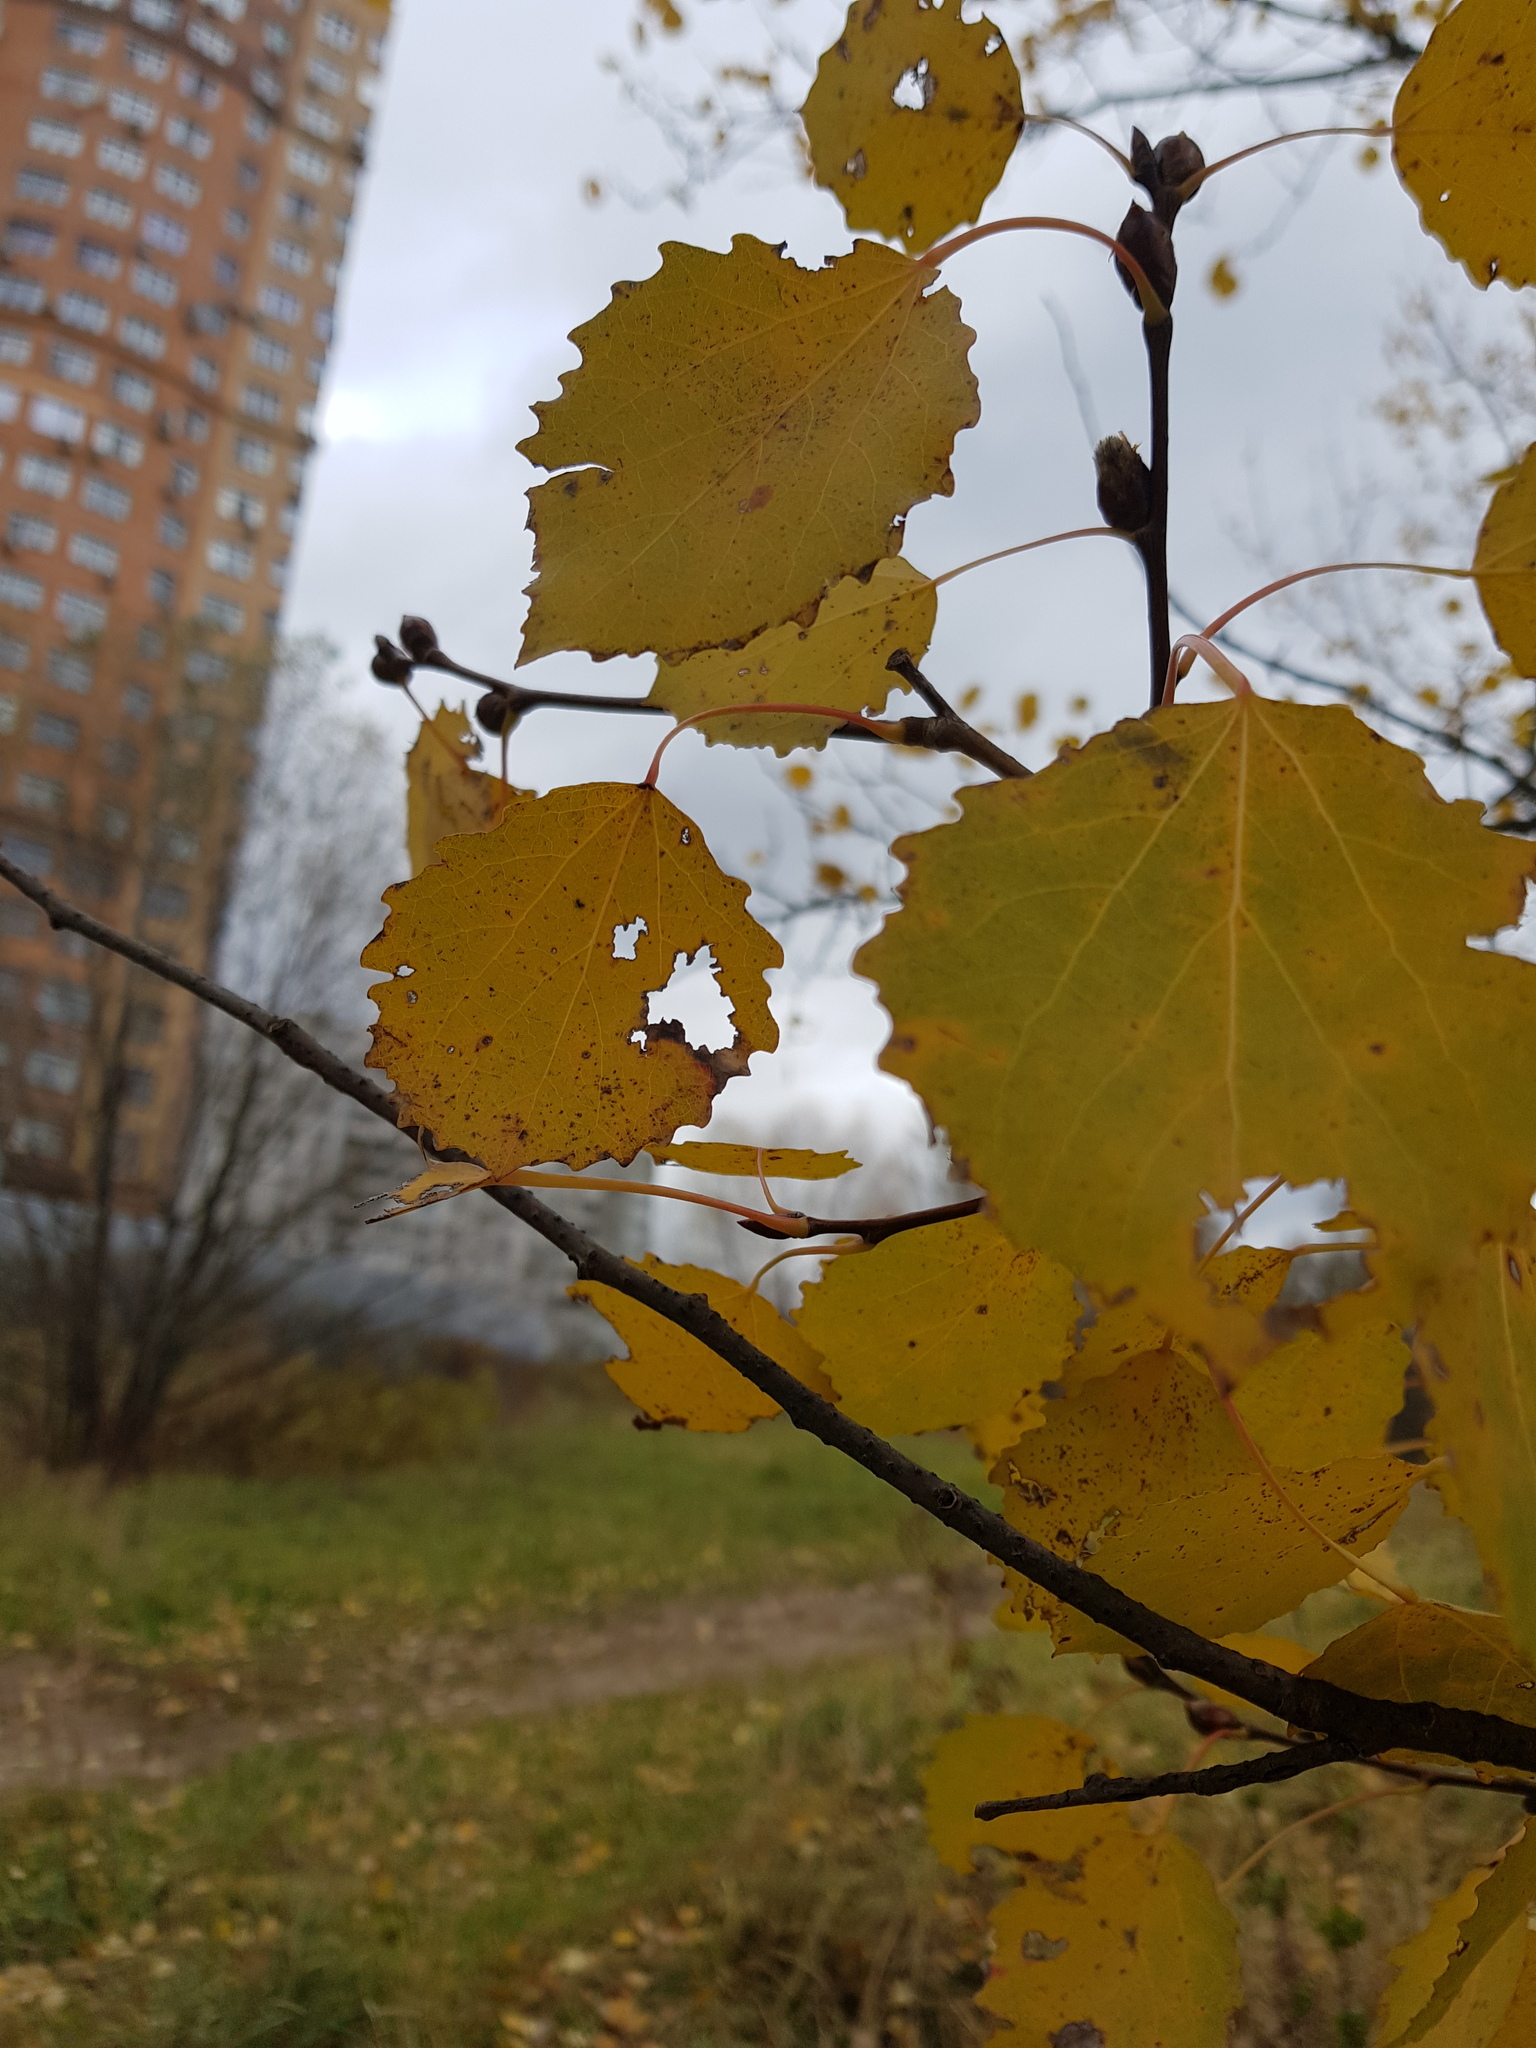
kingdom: Plantae
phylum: Tracheophyta
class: Magnoliopsida
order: Malpighiales
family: Salicaceae
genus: Populus
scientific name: Populus tremula
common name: European aspen
